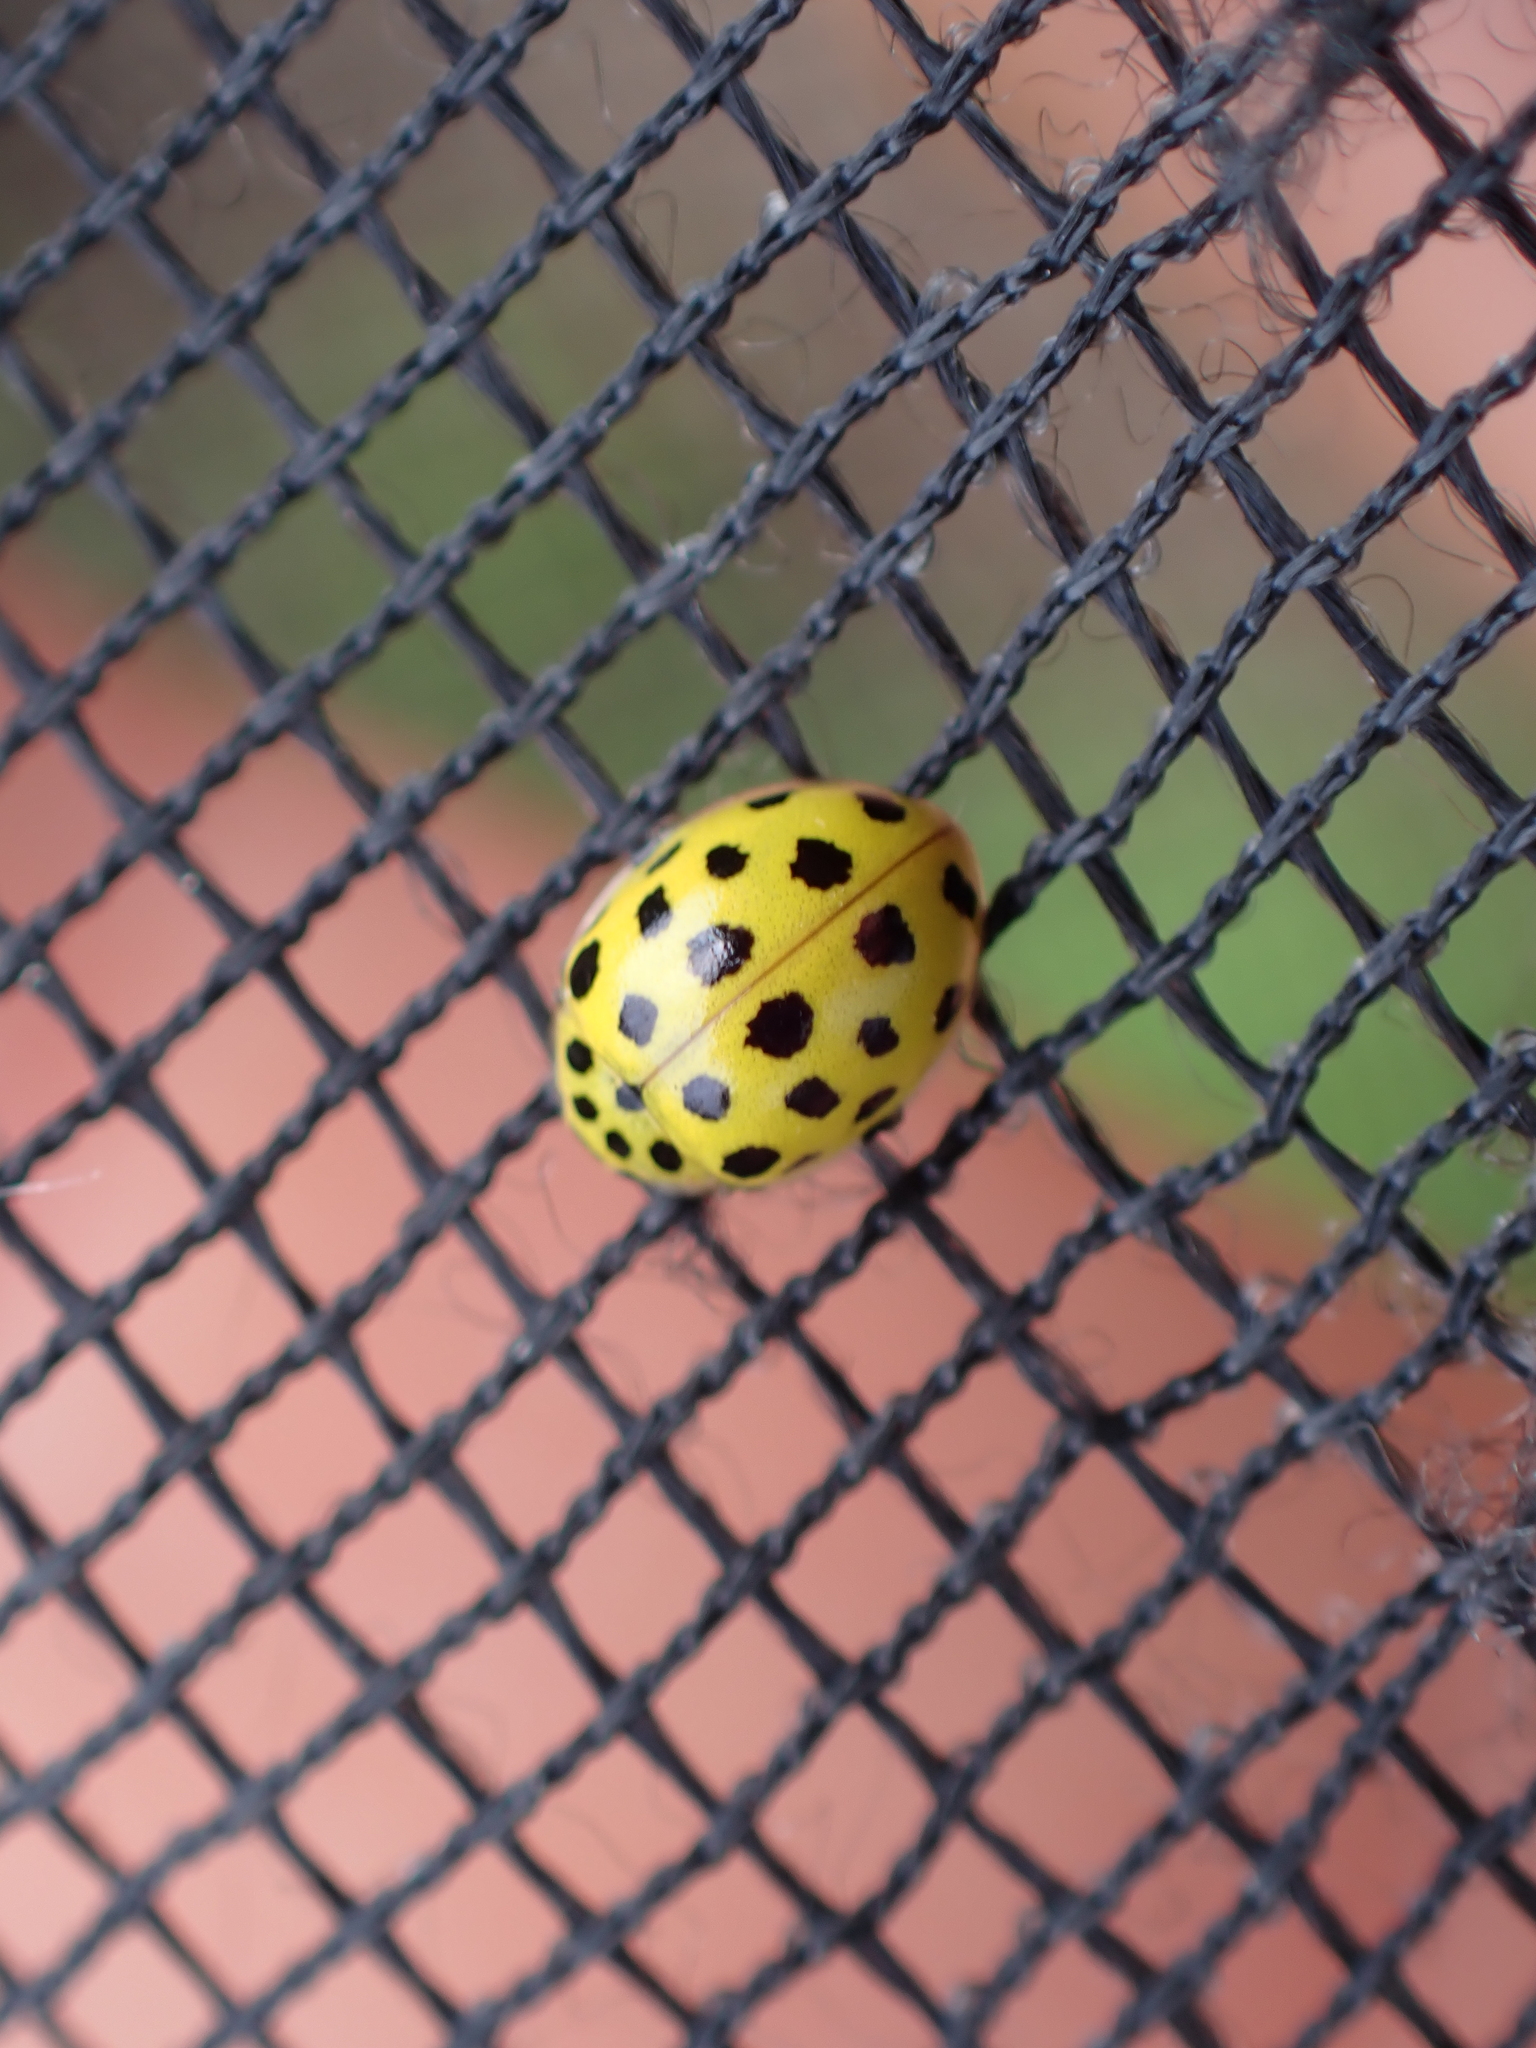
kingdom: Animalia
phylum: Arthropoda
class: Insecta
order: Coleoptera
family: Coccinellidae
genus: Psyllobora
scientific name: Psyllobora vigintiduopunctata
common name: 22-spot ladybird
